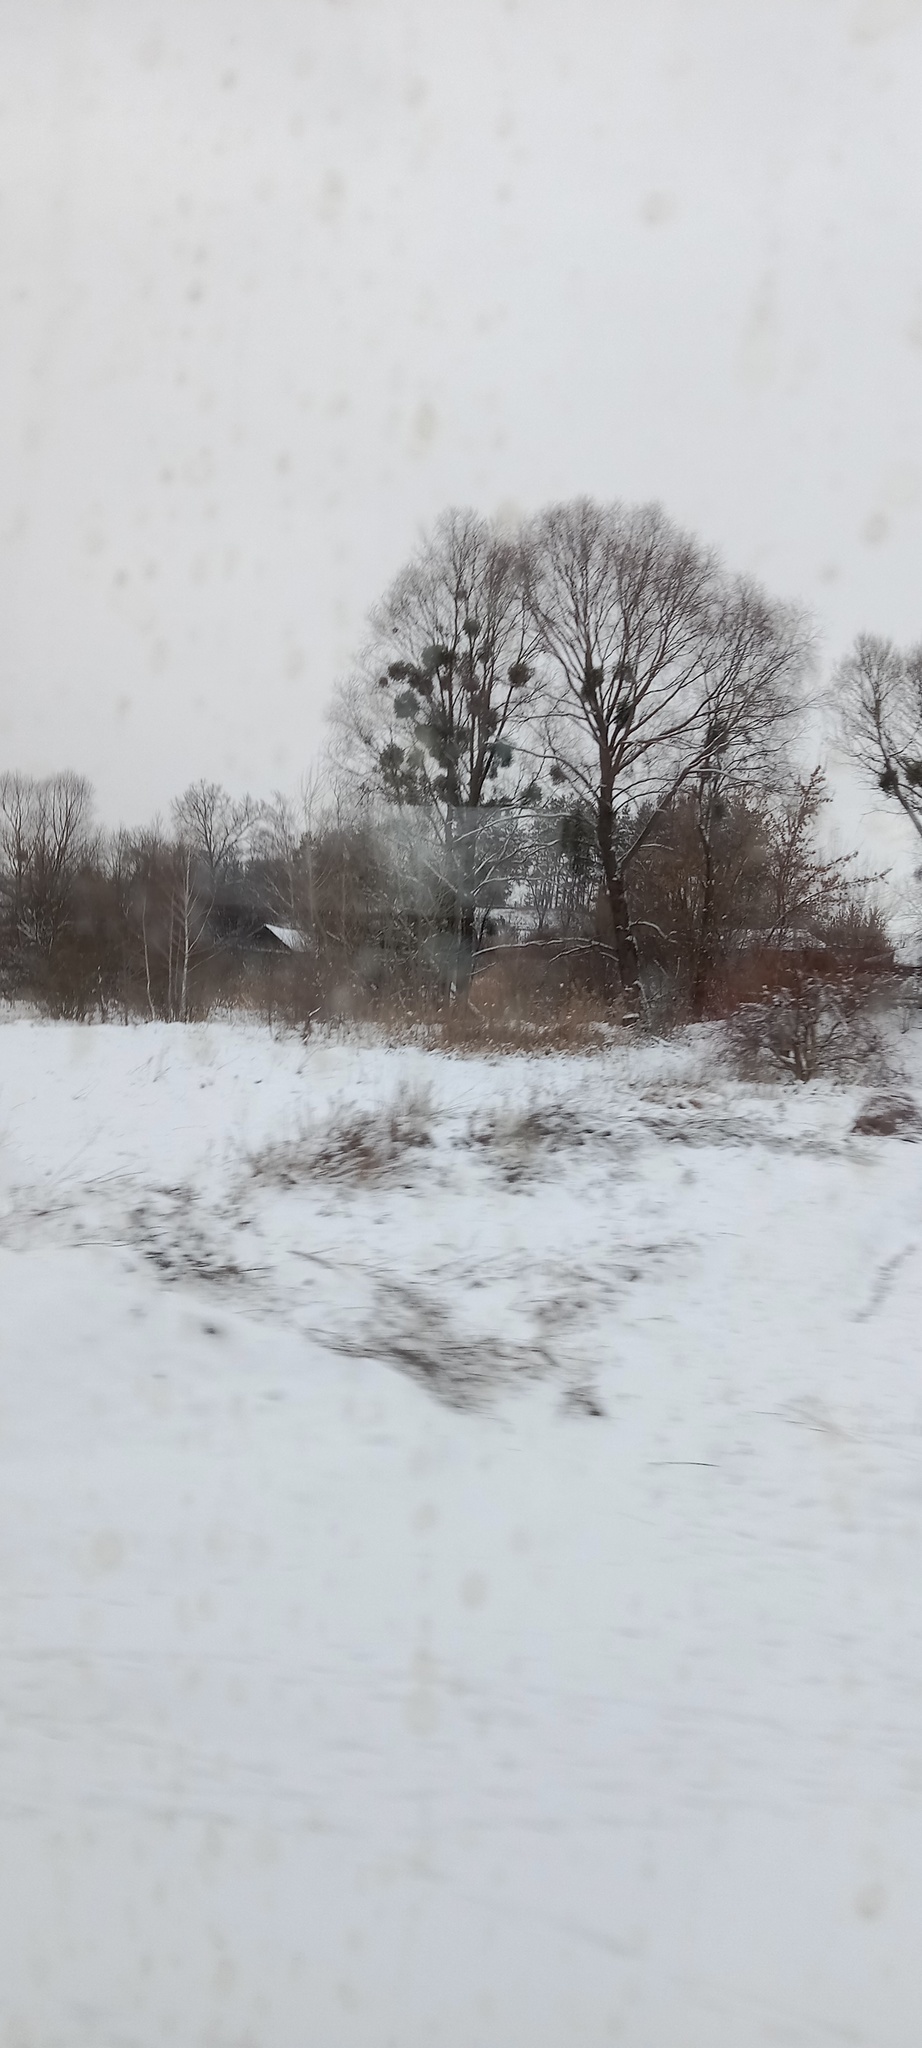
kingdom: Plantae
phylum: Tracheophyta
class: Magnoliopsida
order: Santalales
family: Viscaceae
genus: Viscum
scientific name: Viscum album
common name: Mistletoe
